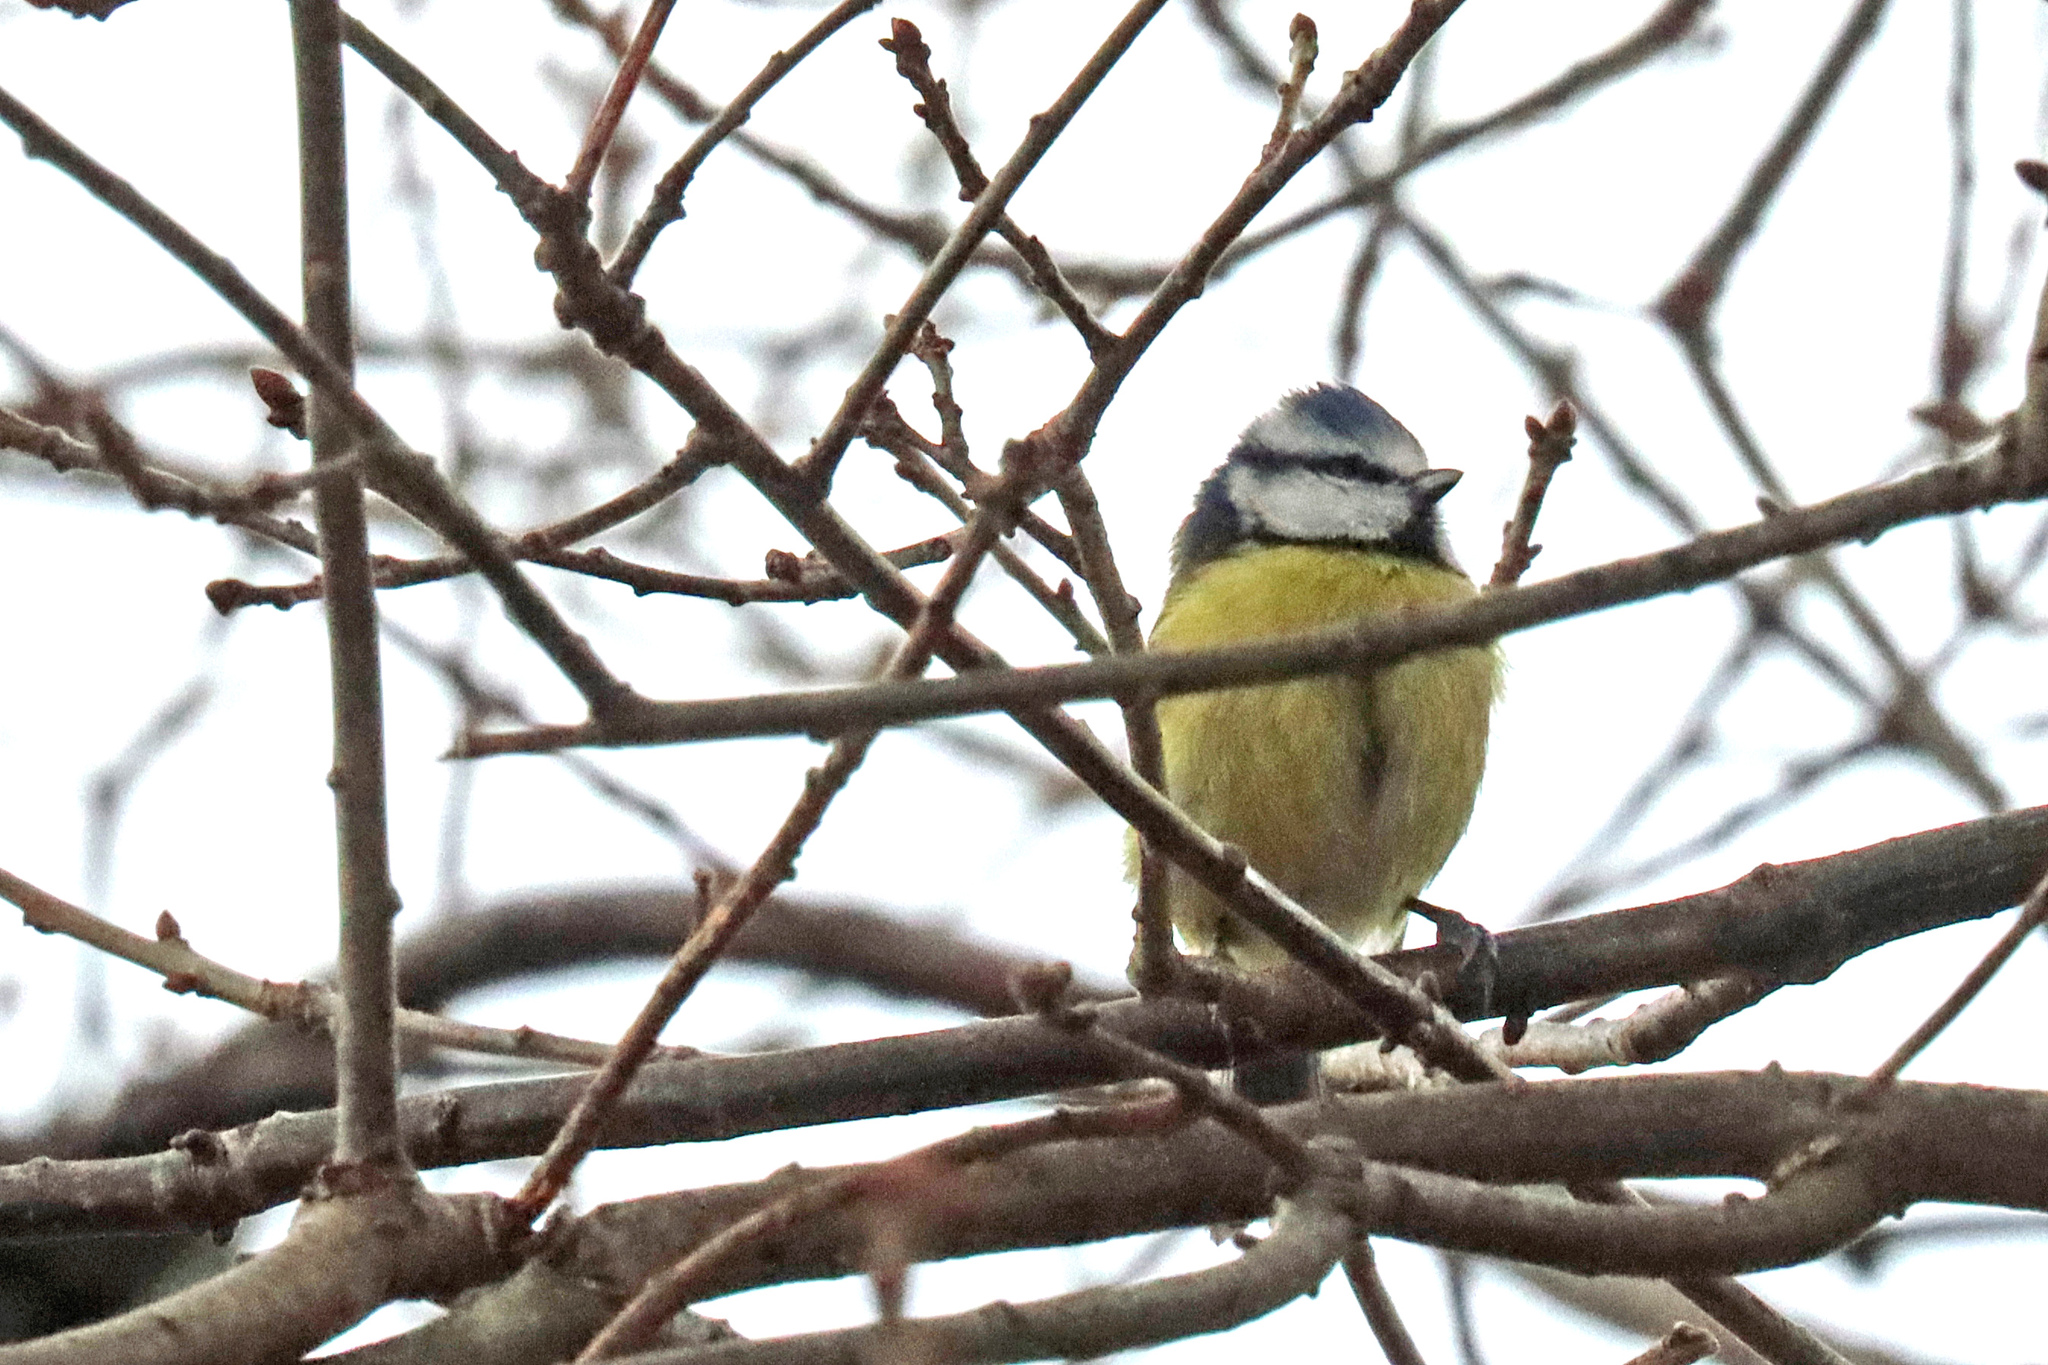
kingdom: Animalia
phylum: Chordata
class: Aves
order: Passeriformes
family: Paridae
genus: Cyanistes
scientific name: Cyanistes caeruleus
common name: Eurasian blue tit
